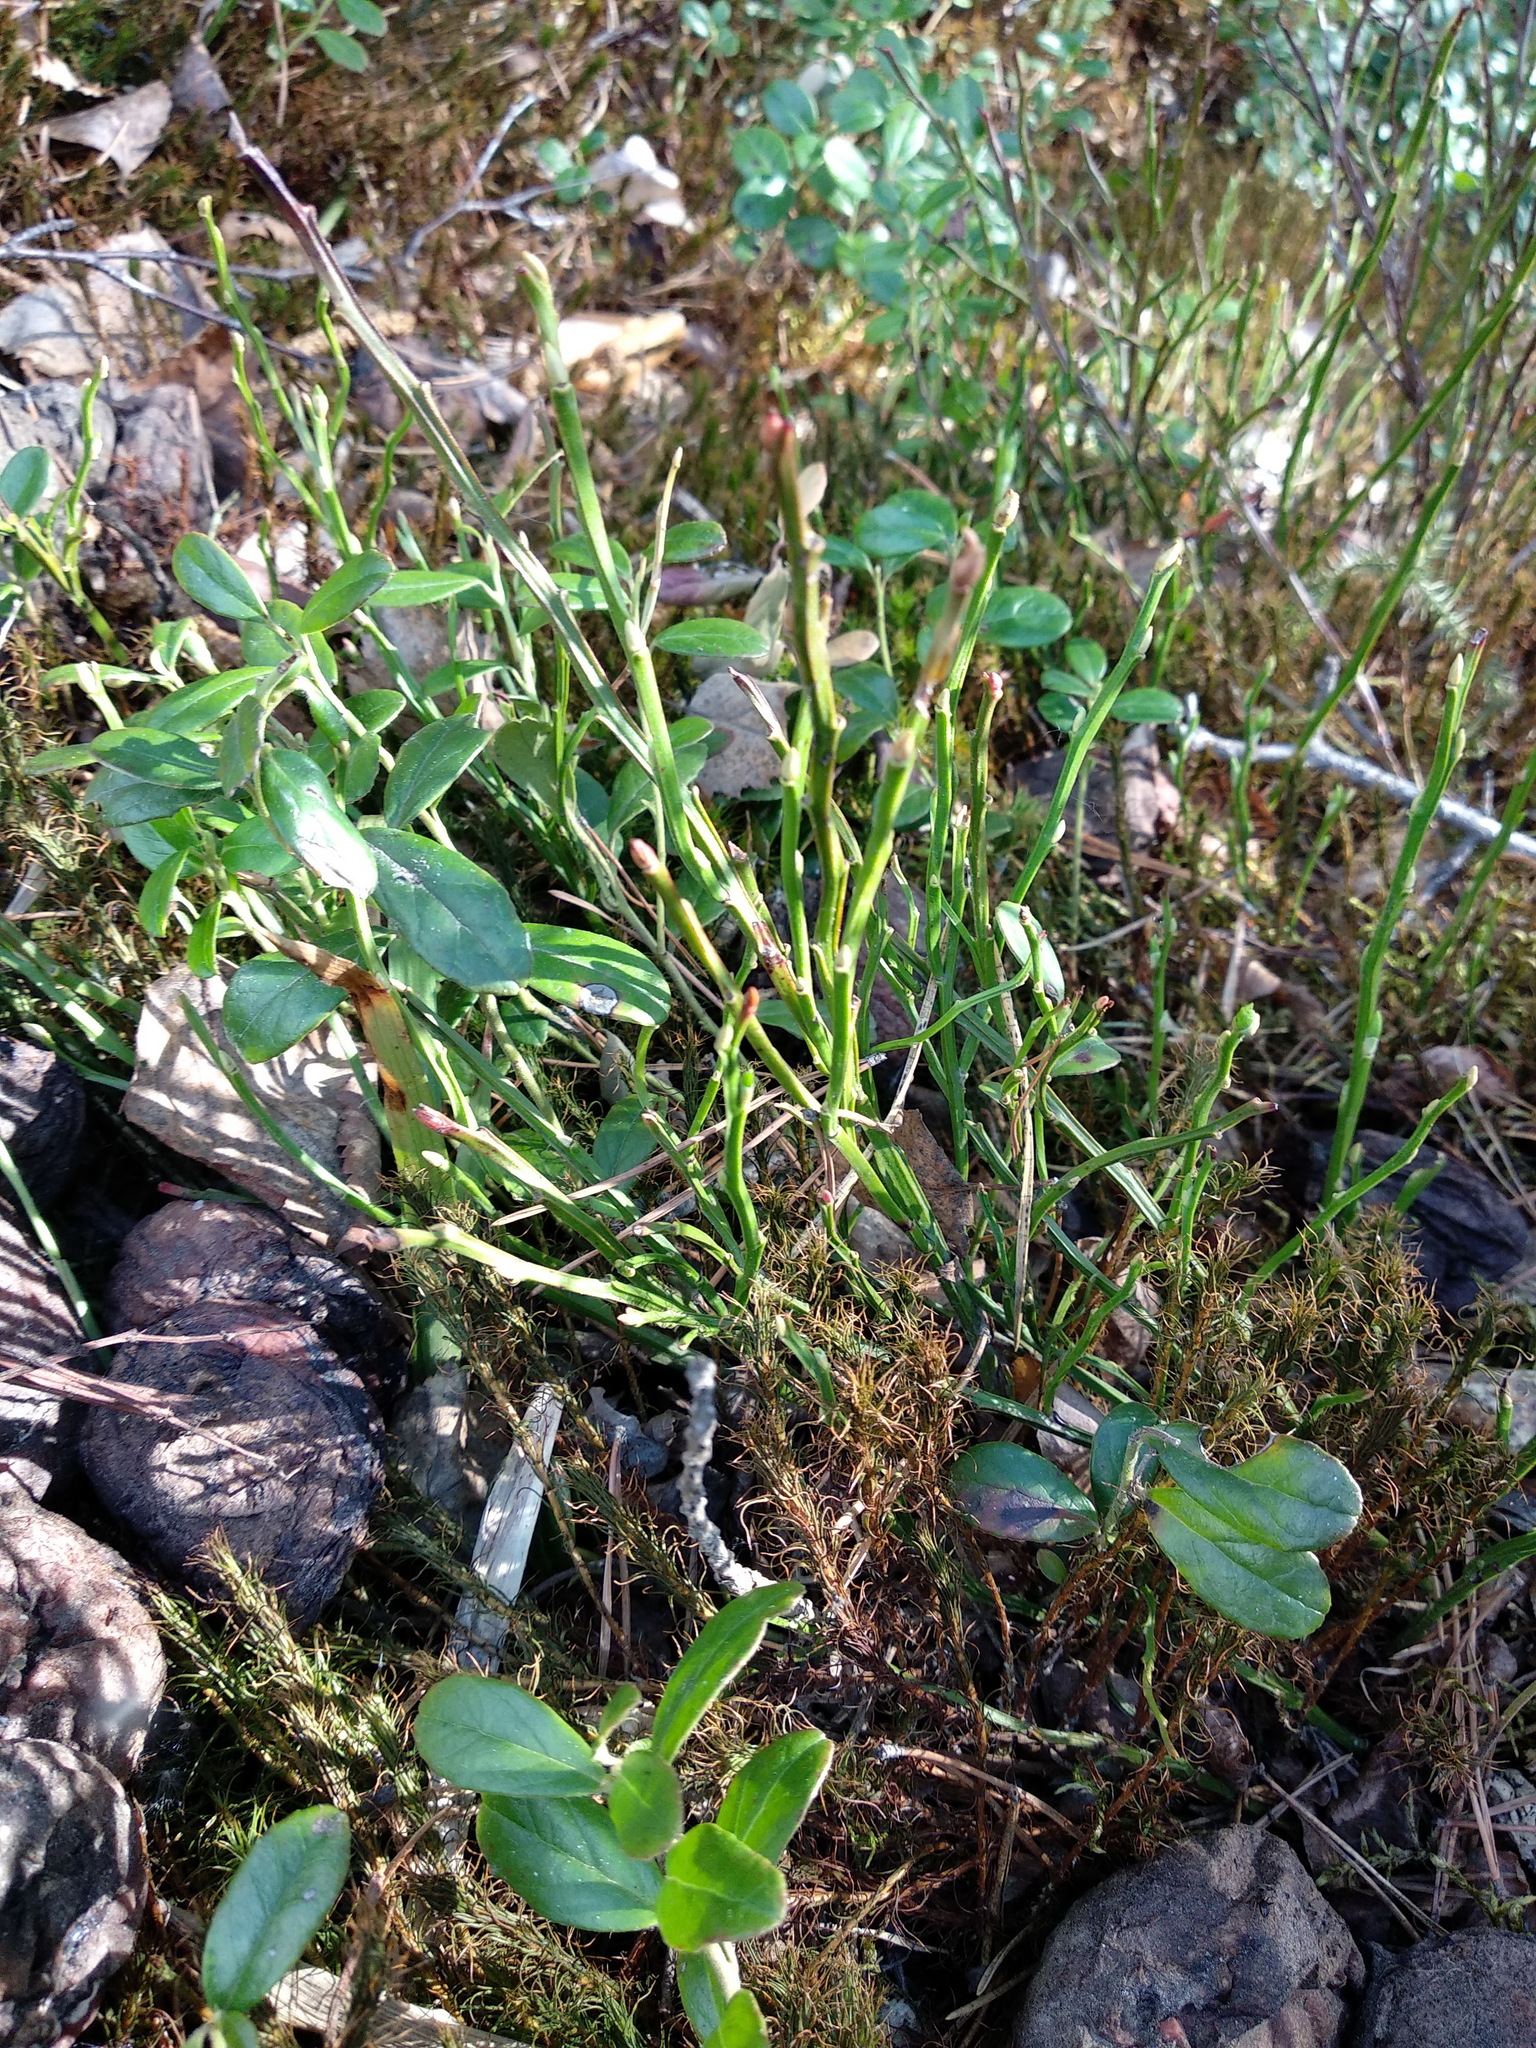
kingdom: Plantae
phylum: Tracheophyta
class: Magnoliopsida
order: Ericales
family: Ericaceae
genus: Vaccinium
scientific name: Vaccinium myrtillus
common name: Bilberry
